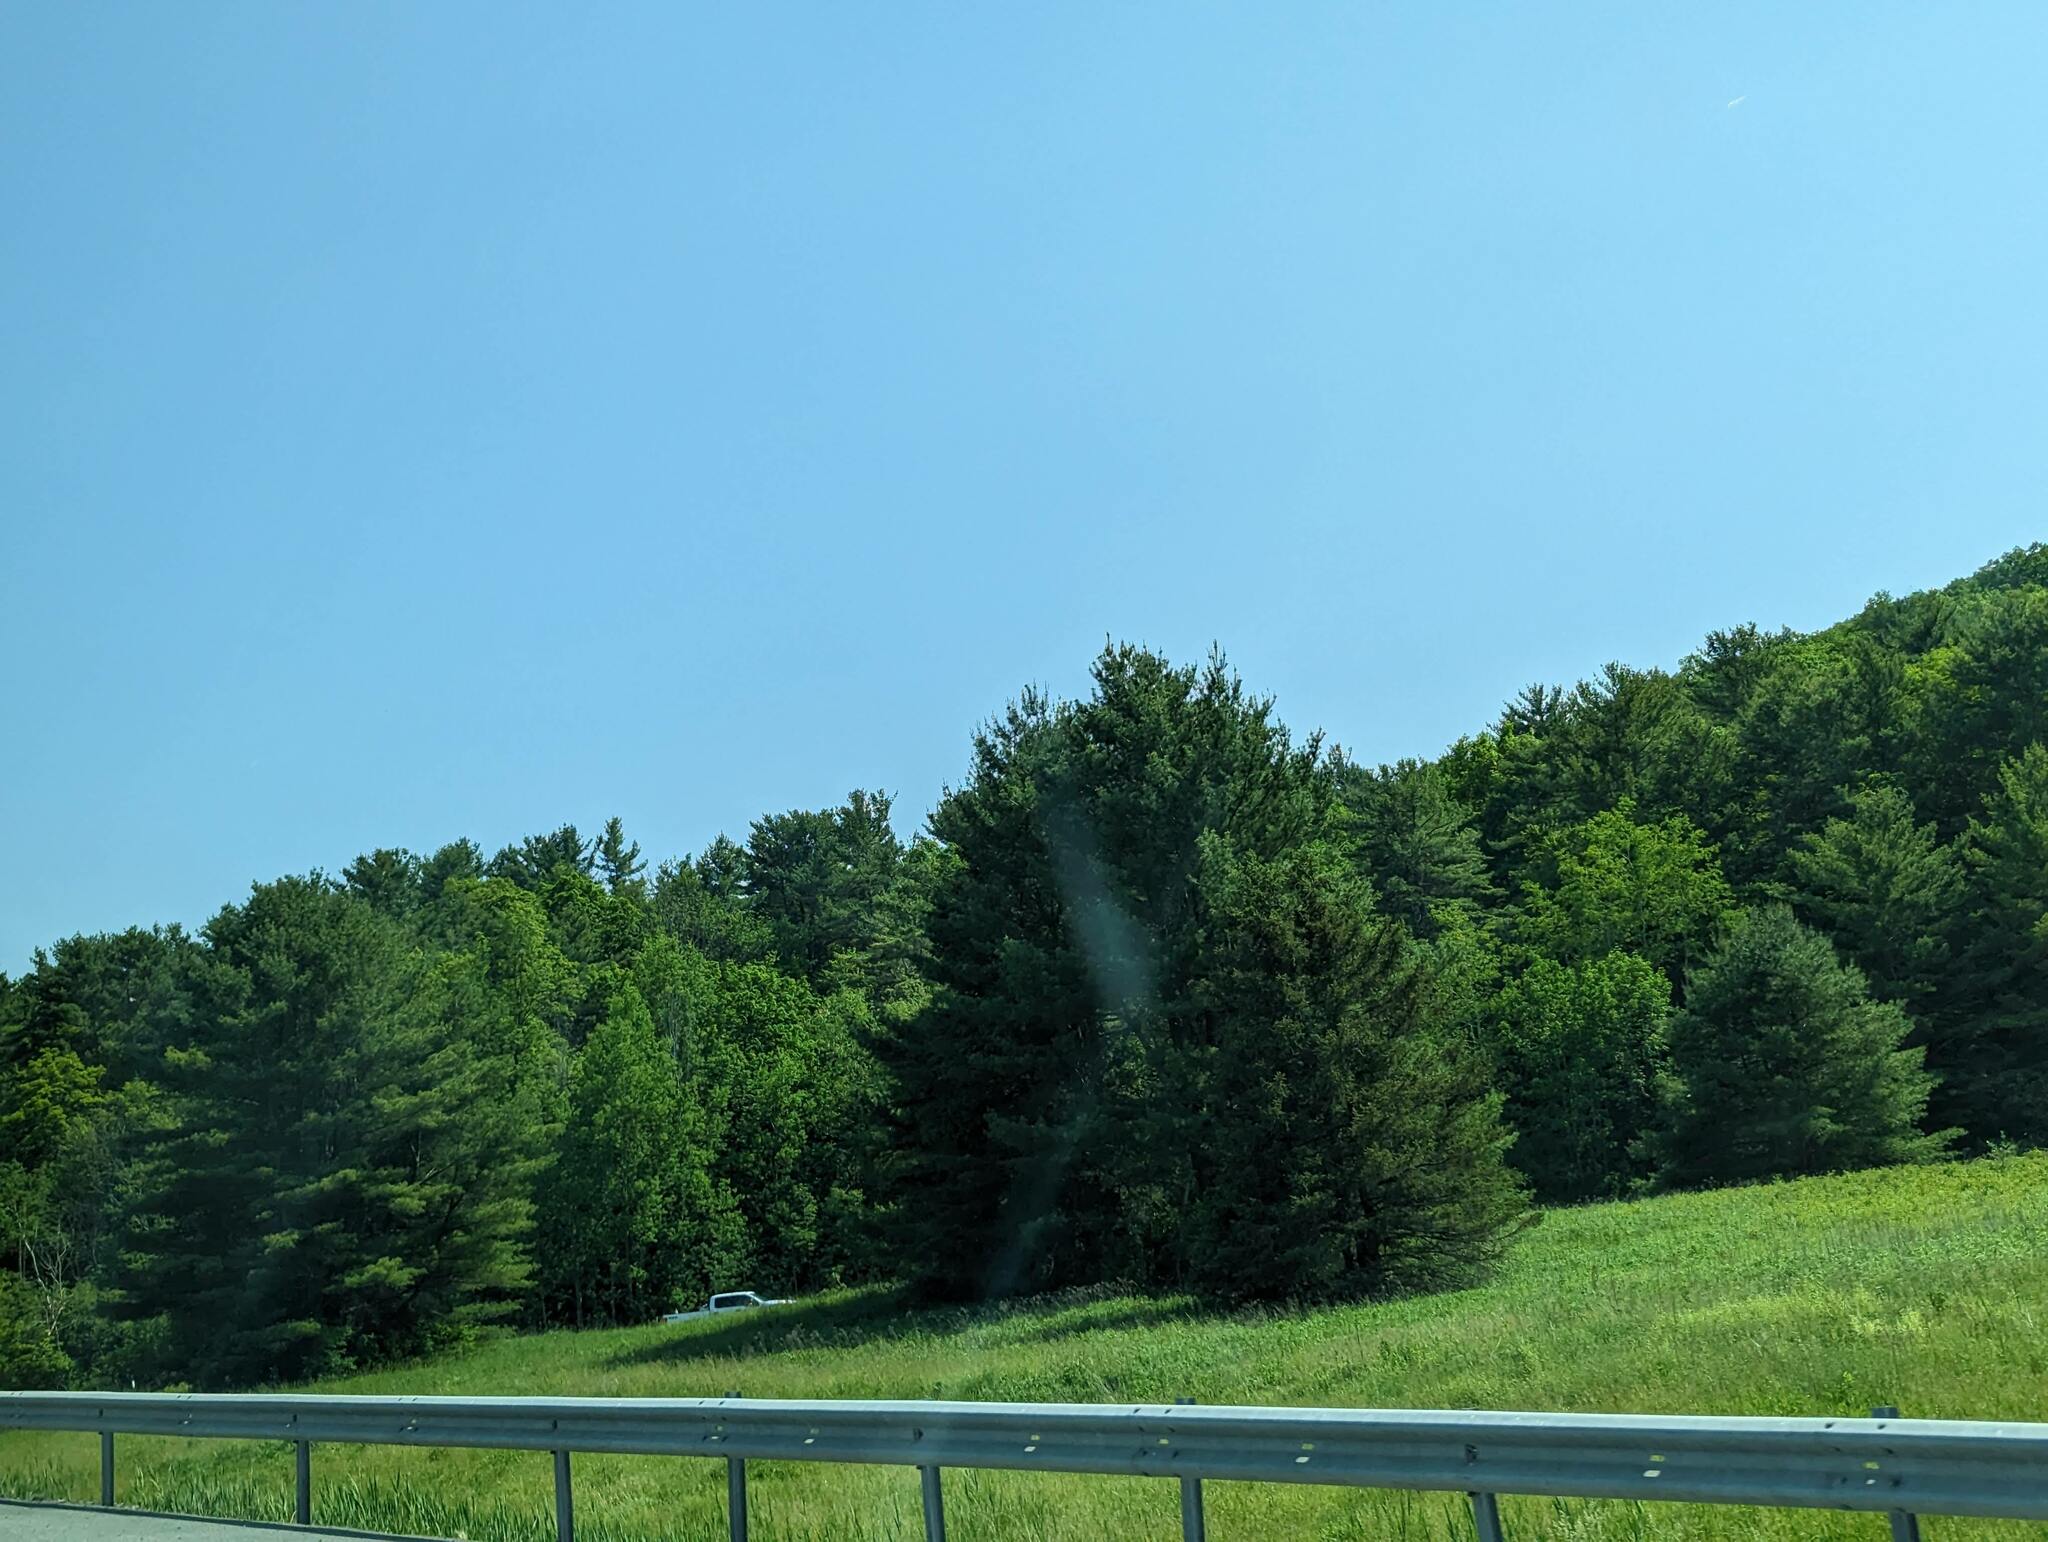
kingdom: Plantae
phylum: Tracheophyta
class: Pinopsida
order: Pinales
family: Pinaceae
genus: Pinus
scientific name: Pinus strobus
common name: Weymouth pine
